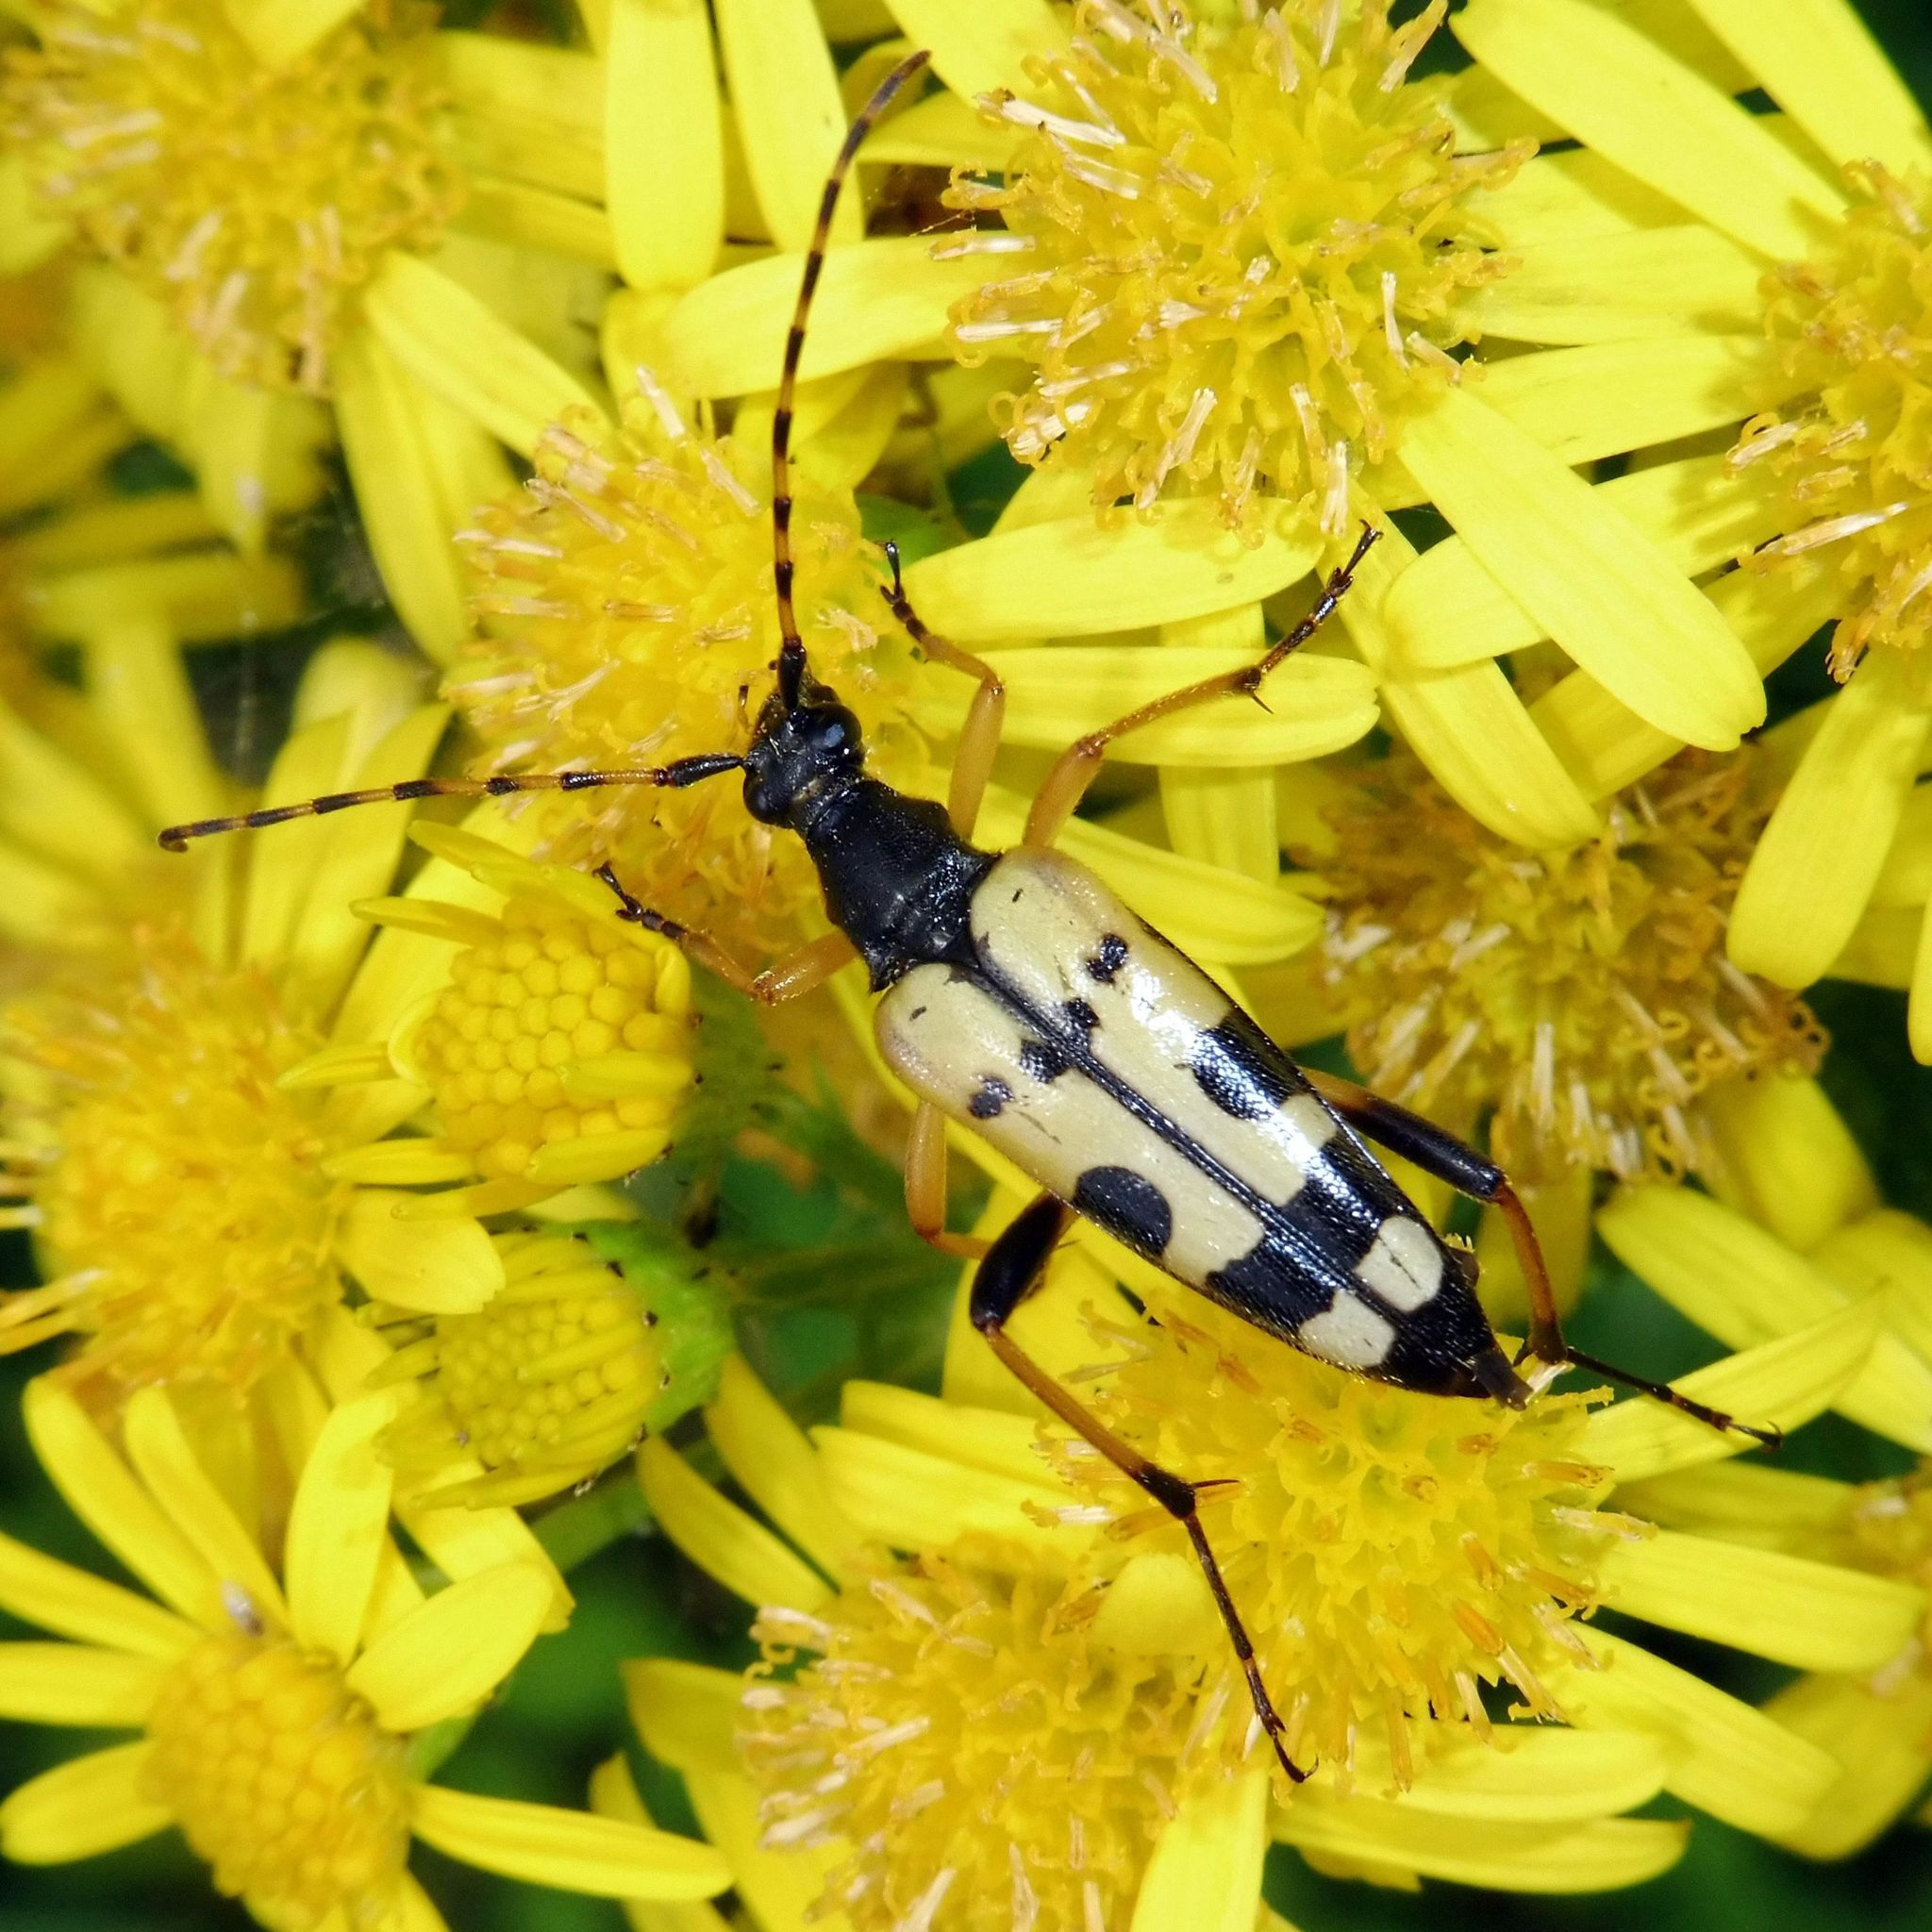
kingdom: Animalia
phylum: Arthropoda
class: Insecta
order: Coleoptera
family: Cerambycidae
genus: Rutpela
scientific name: Rutpela maculata
